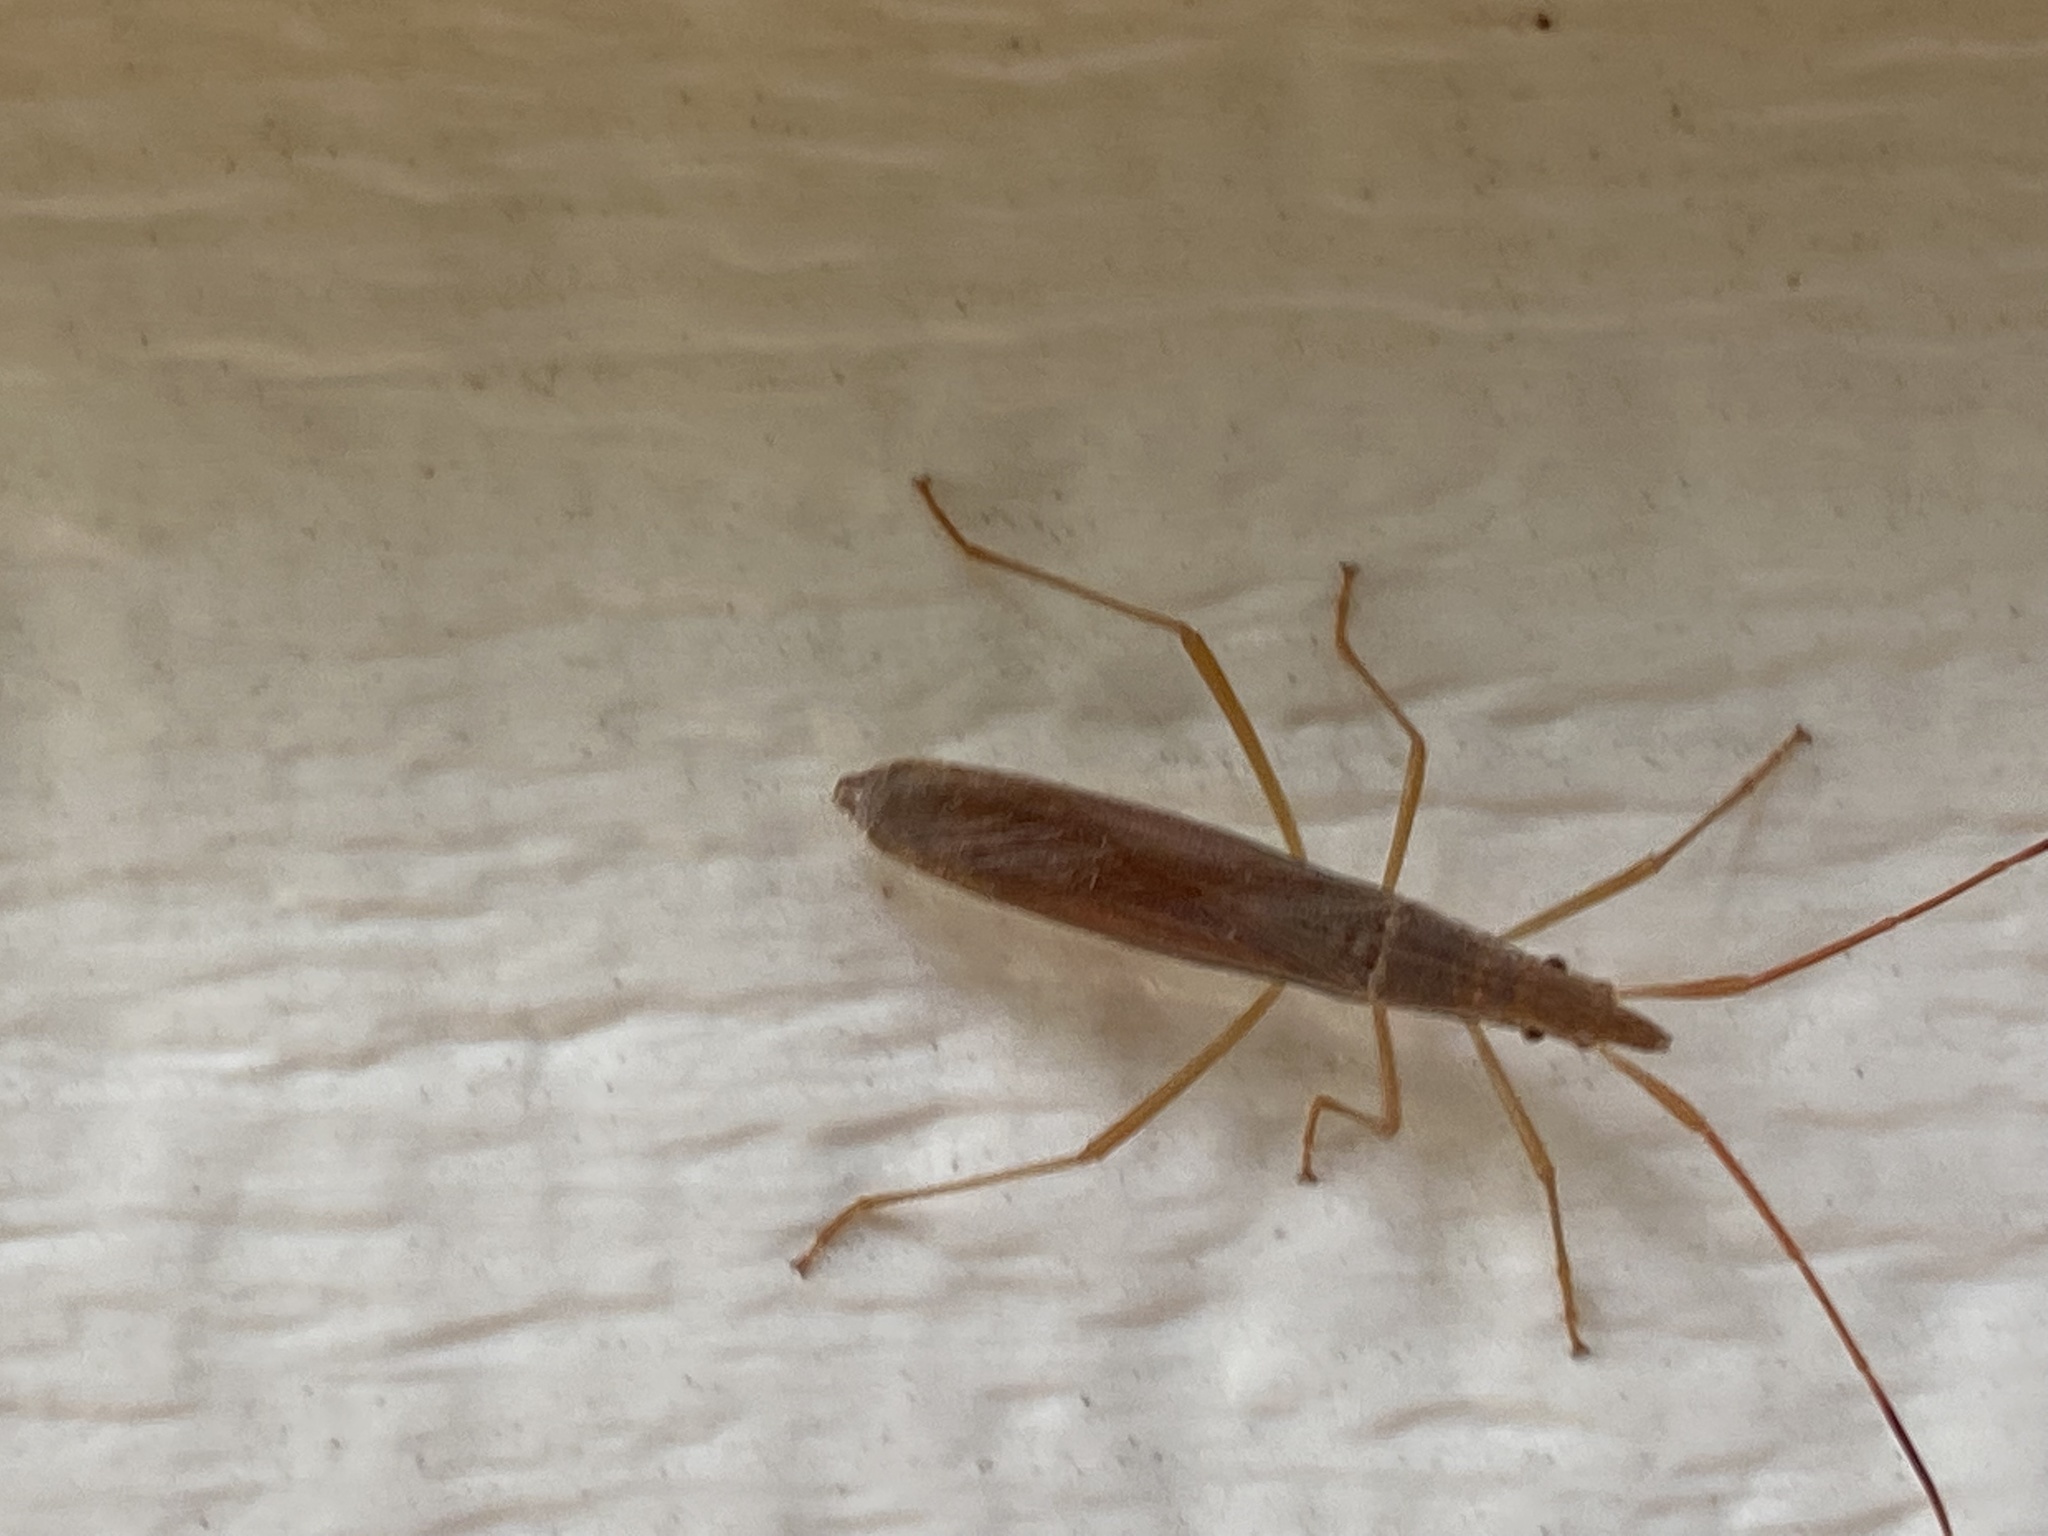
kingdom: Animalia
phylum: Arthropoda
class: Insecta
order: Hemiptera
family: Alydidae
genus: Protenor
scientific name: Protenor belfragei
